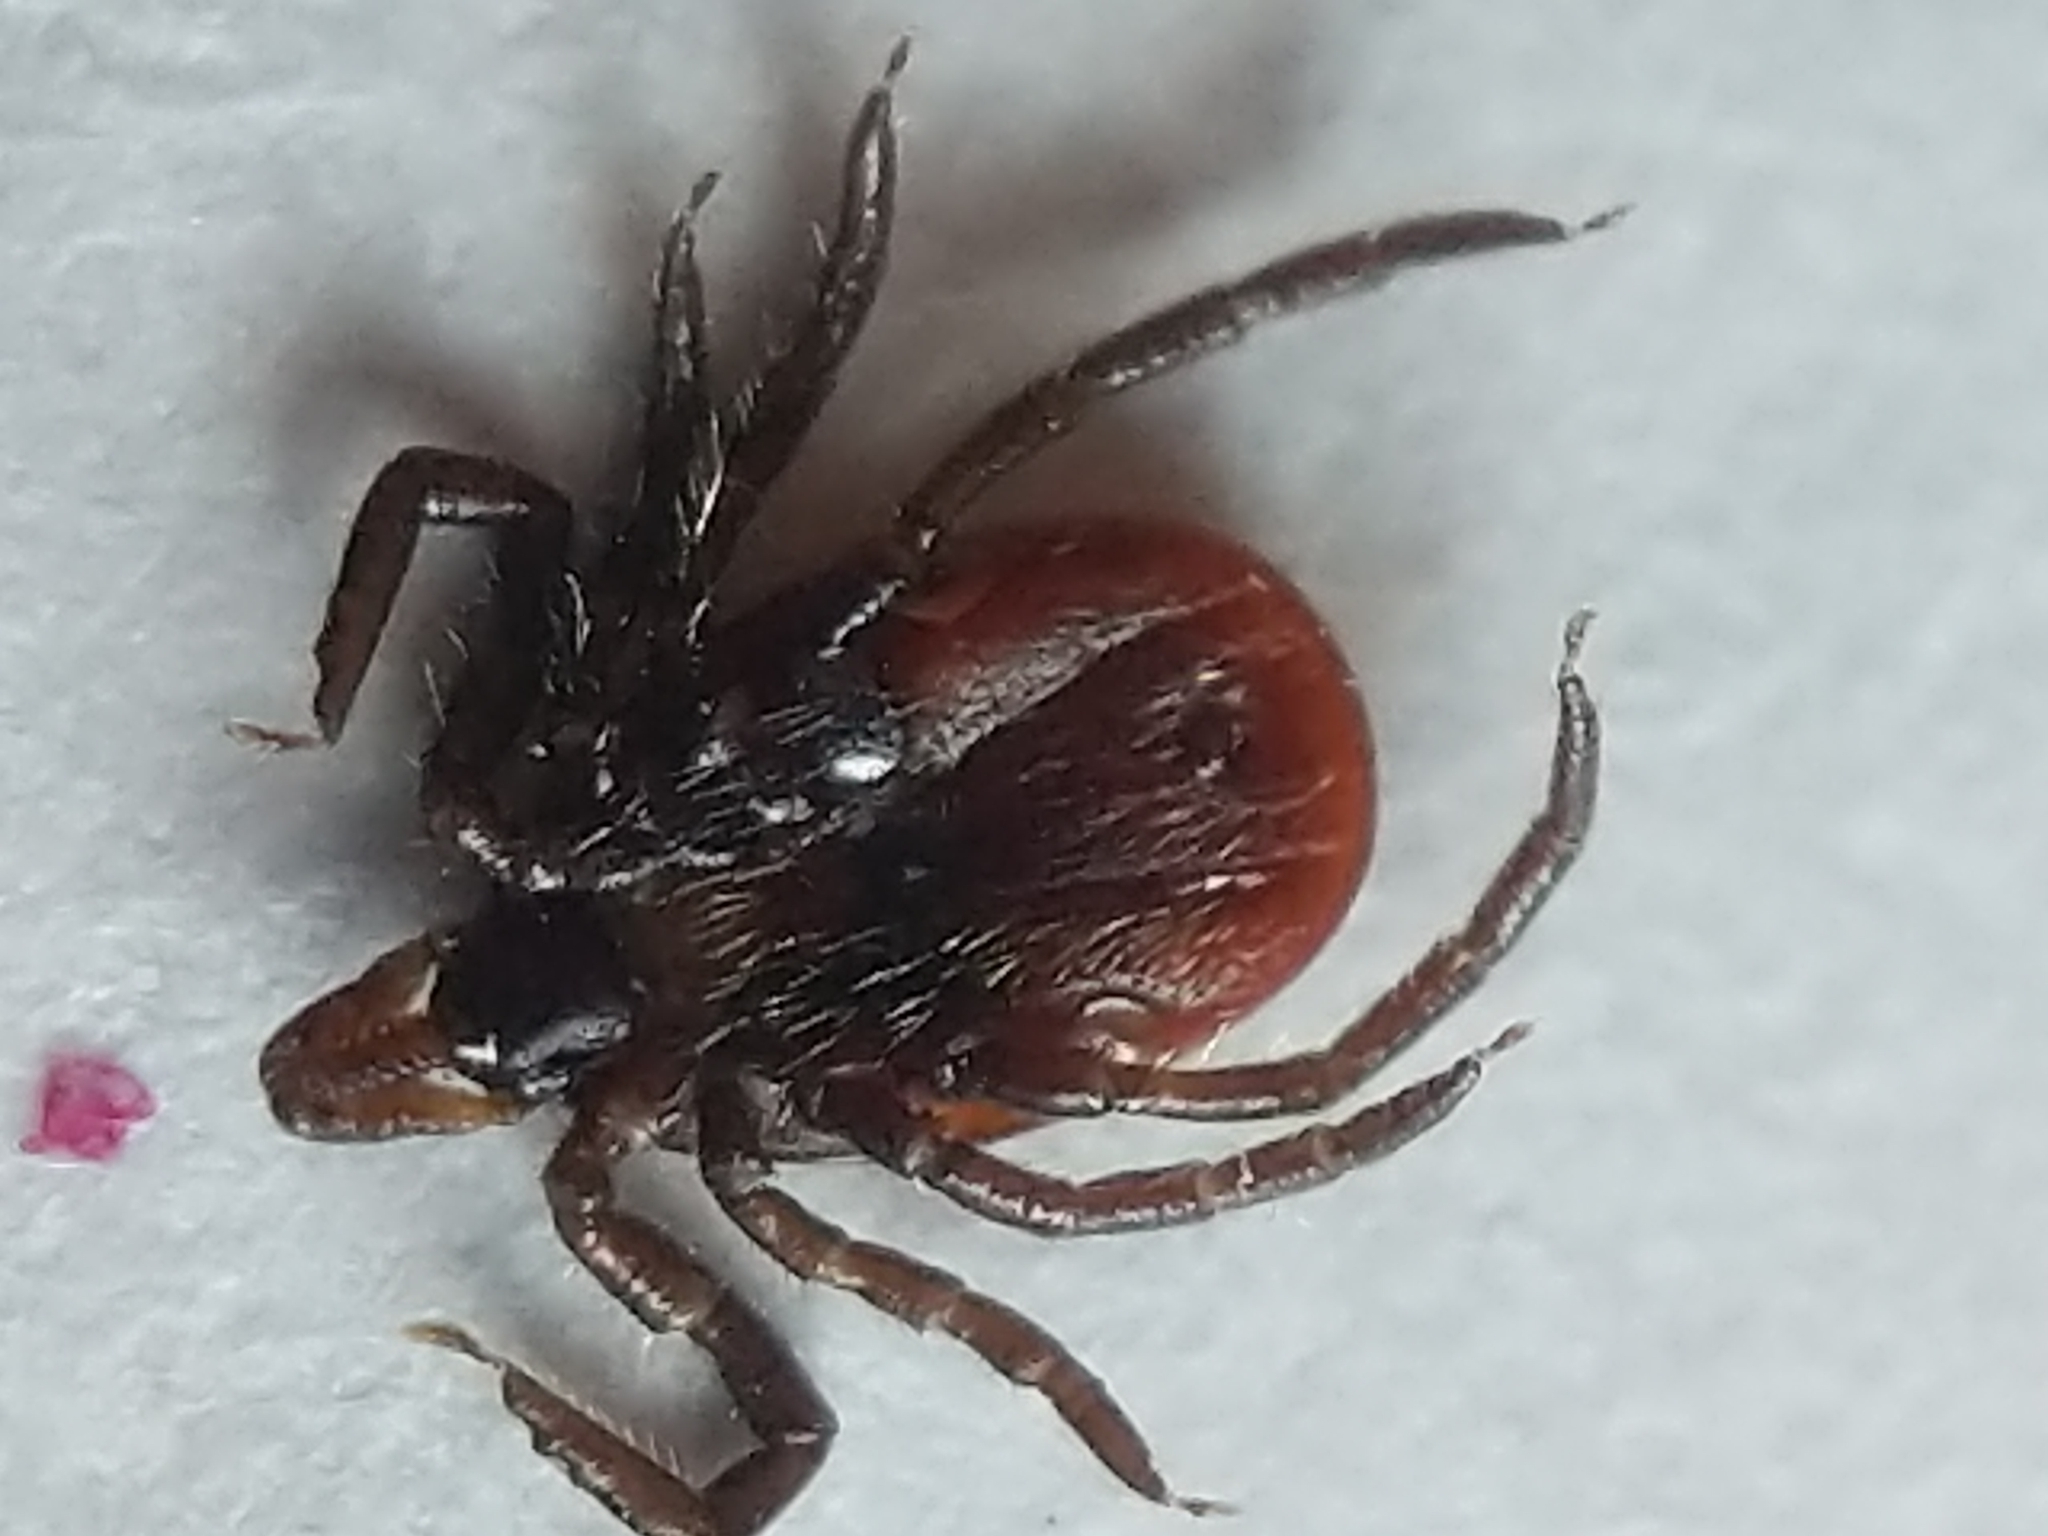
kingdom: Animalia
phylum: Arthropoda
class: Arachnida
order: Ixodida
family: Ixodidae
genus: Ixodes
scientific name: Ixodes scapularis
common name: Black legged tick
